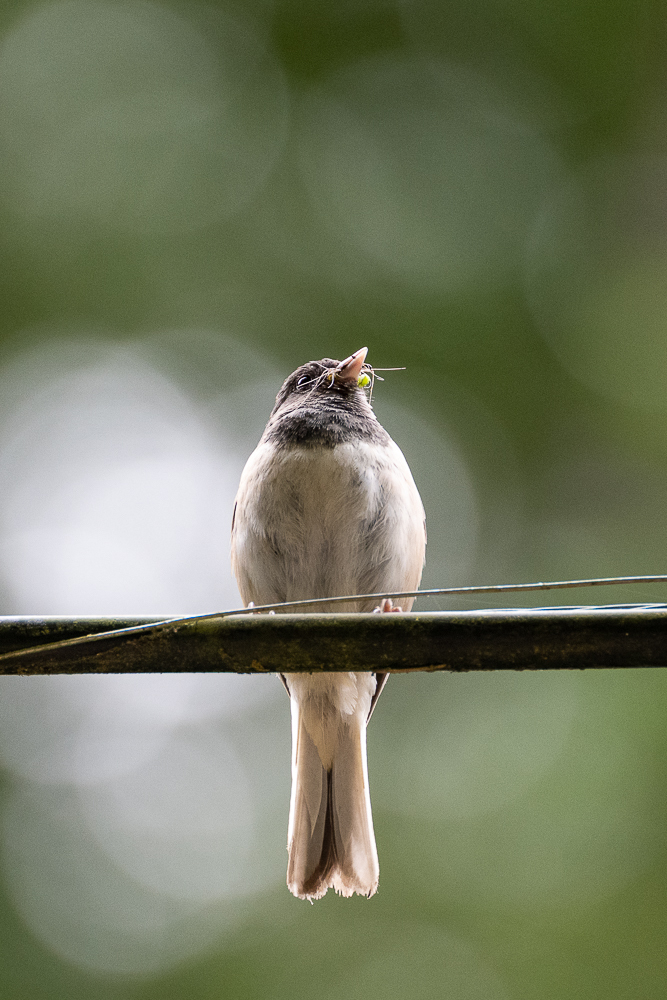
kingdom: Animalia
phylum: Chordata
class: Aves
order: Passeriformes
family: Passerellidae
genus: Junco
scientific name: Junco hyemalis
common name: Dark-eyed junco
